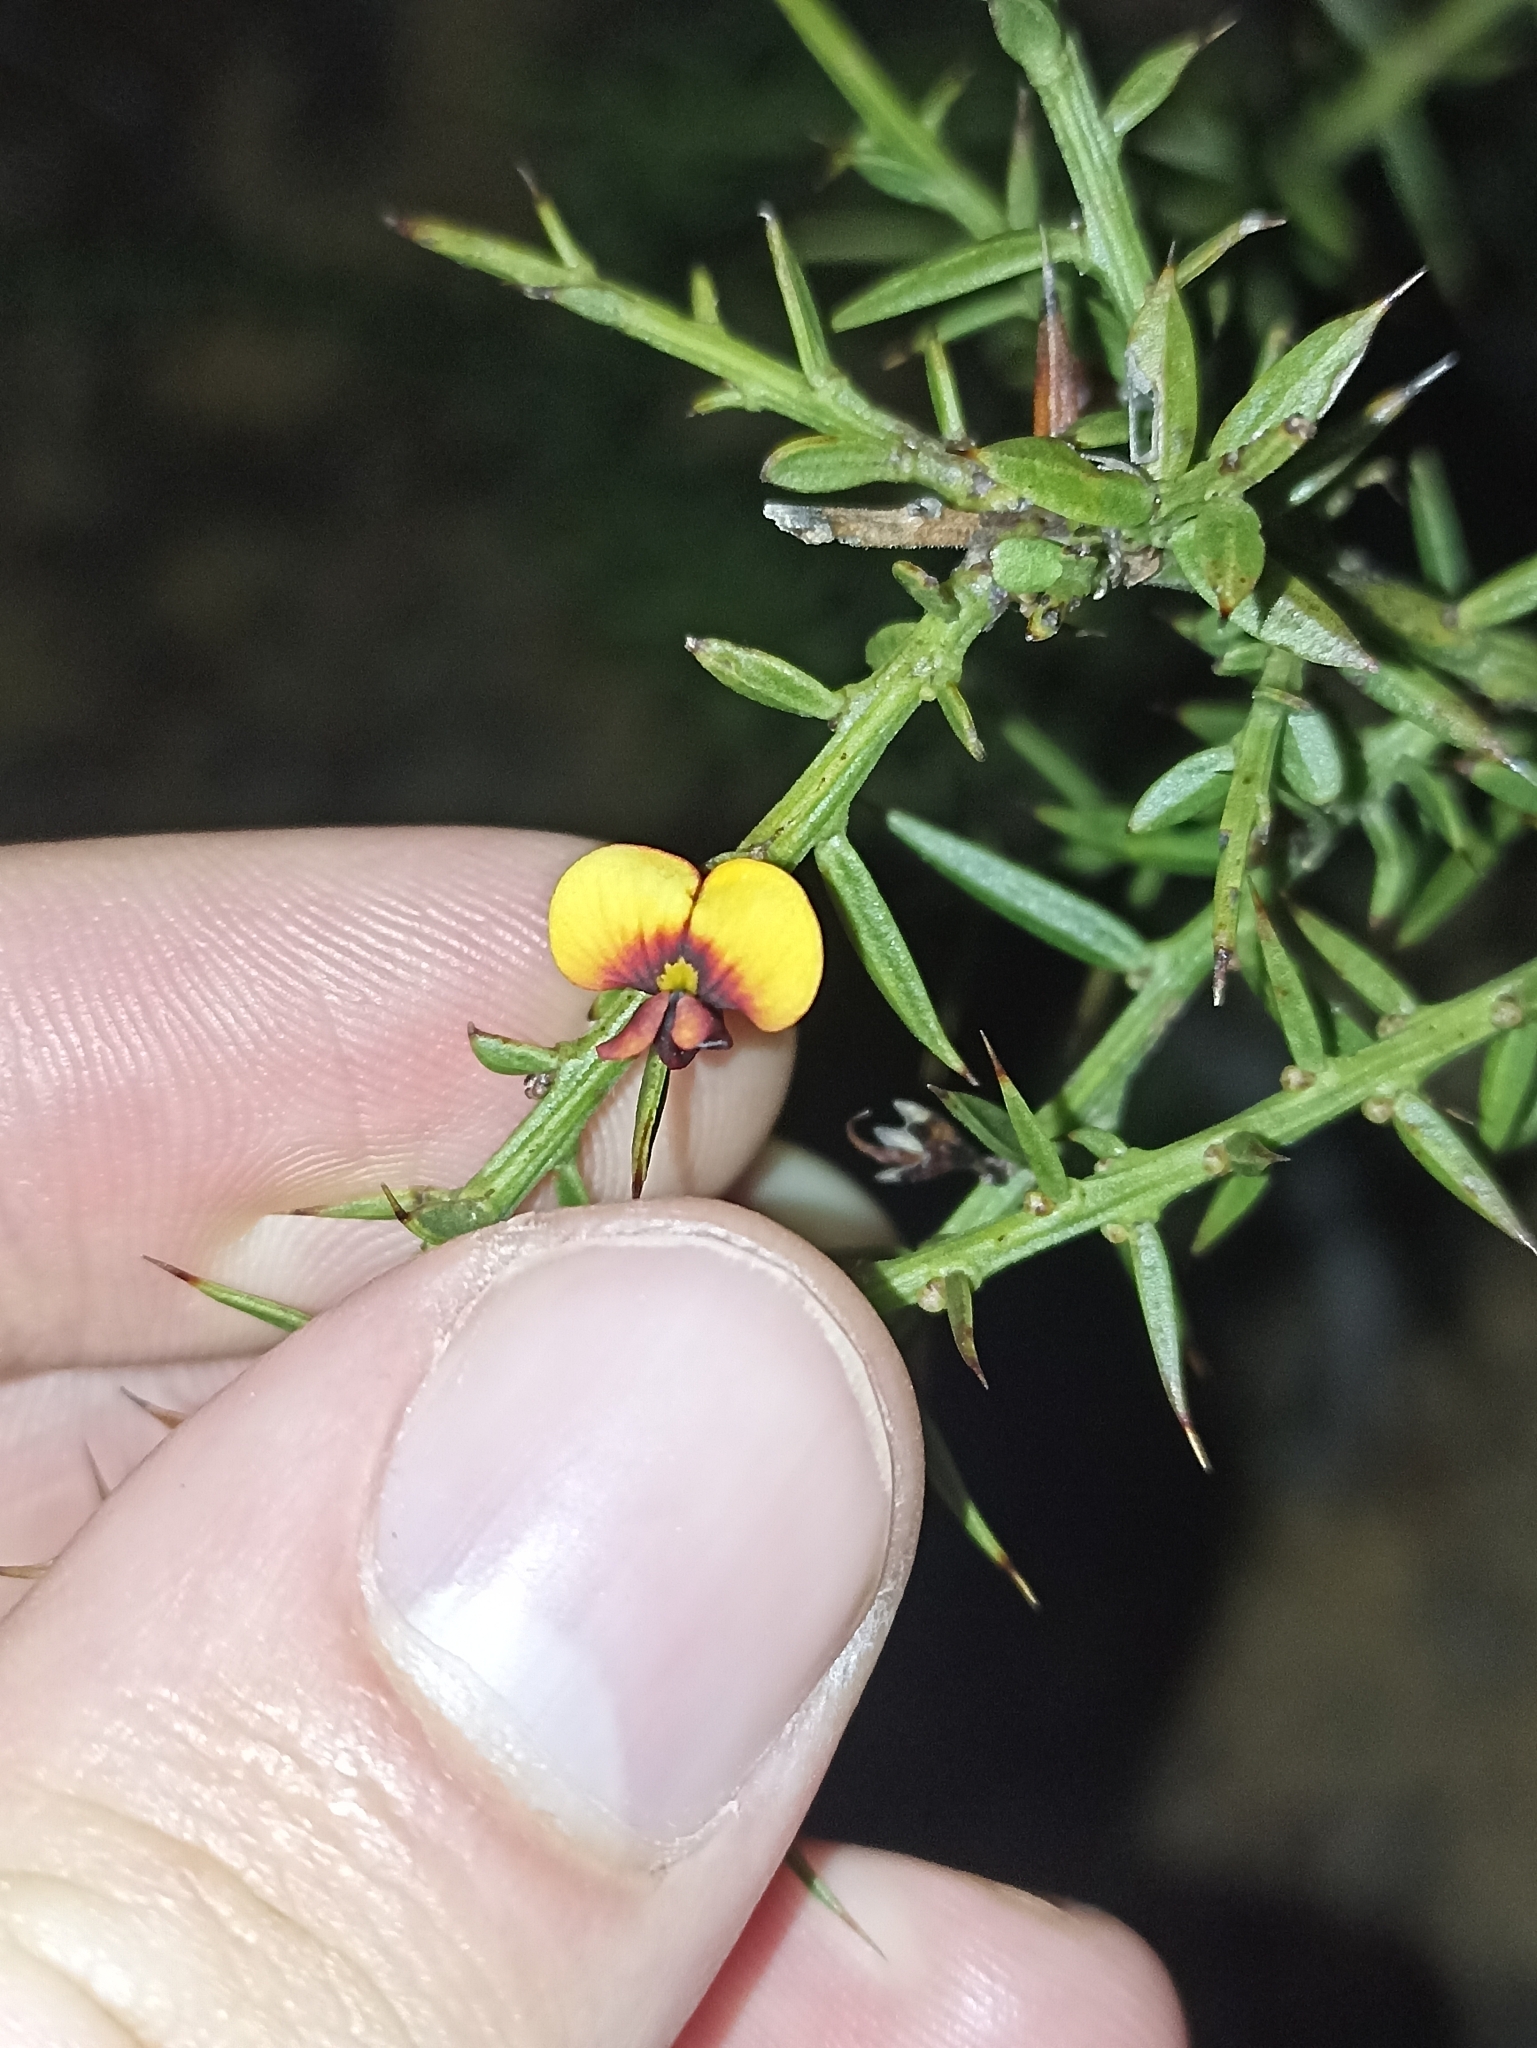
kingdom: Plantae
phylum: Tracheophyta
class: Magnoliopsida
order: Fabales
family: Fabaceae
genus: Daviesia
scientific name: Daviesia ulicifolia
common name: Gorse bitter-pea
